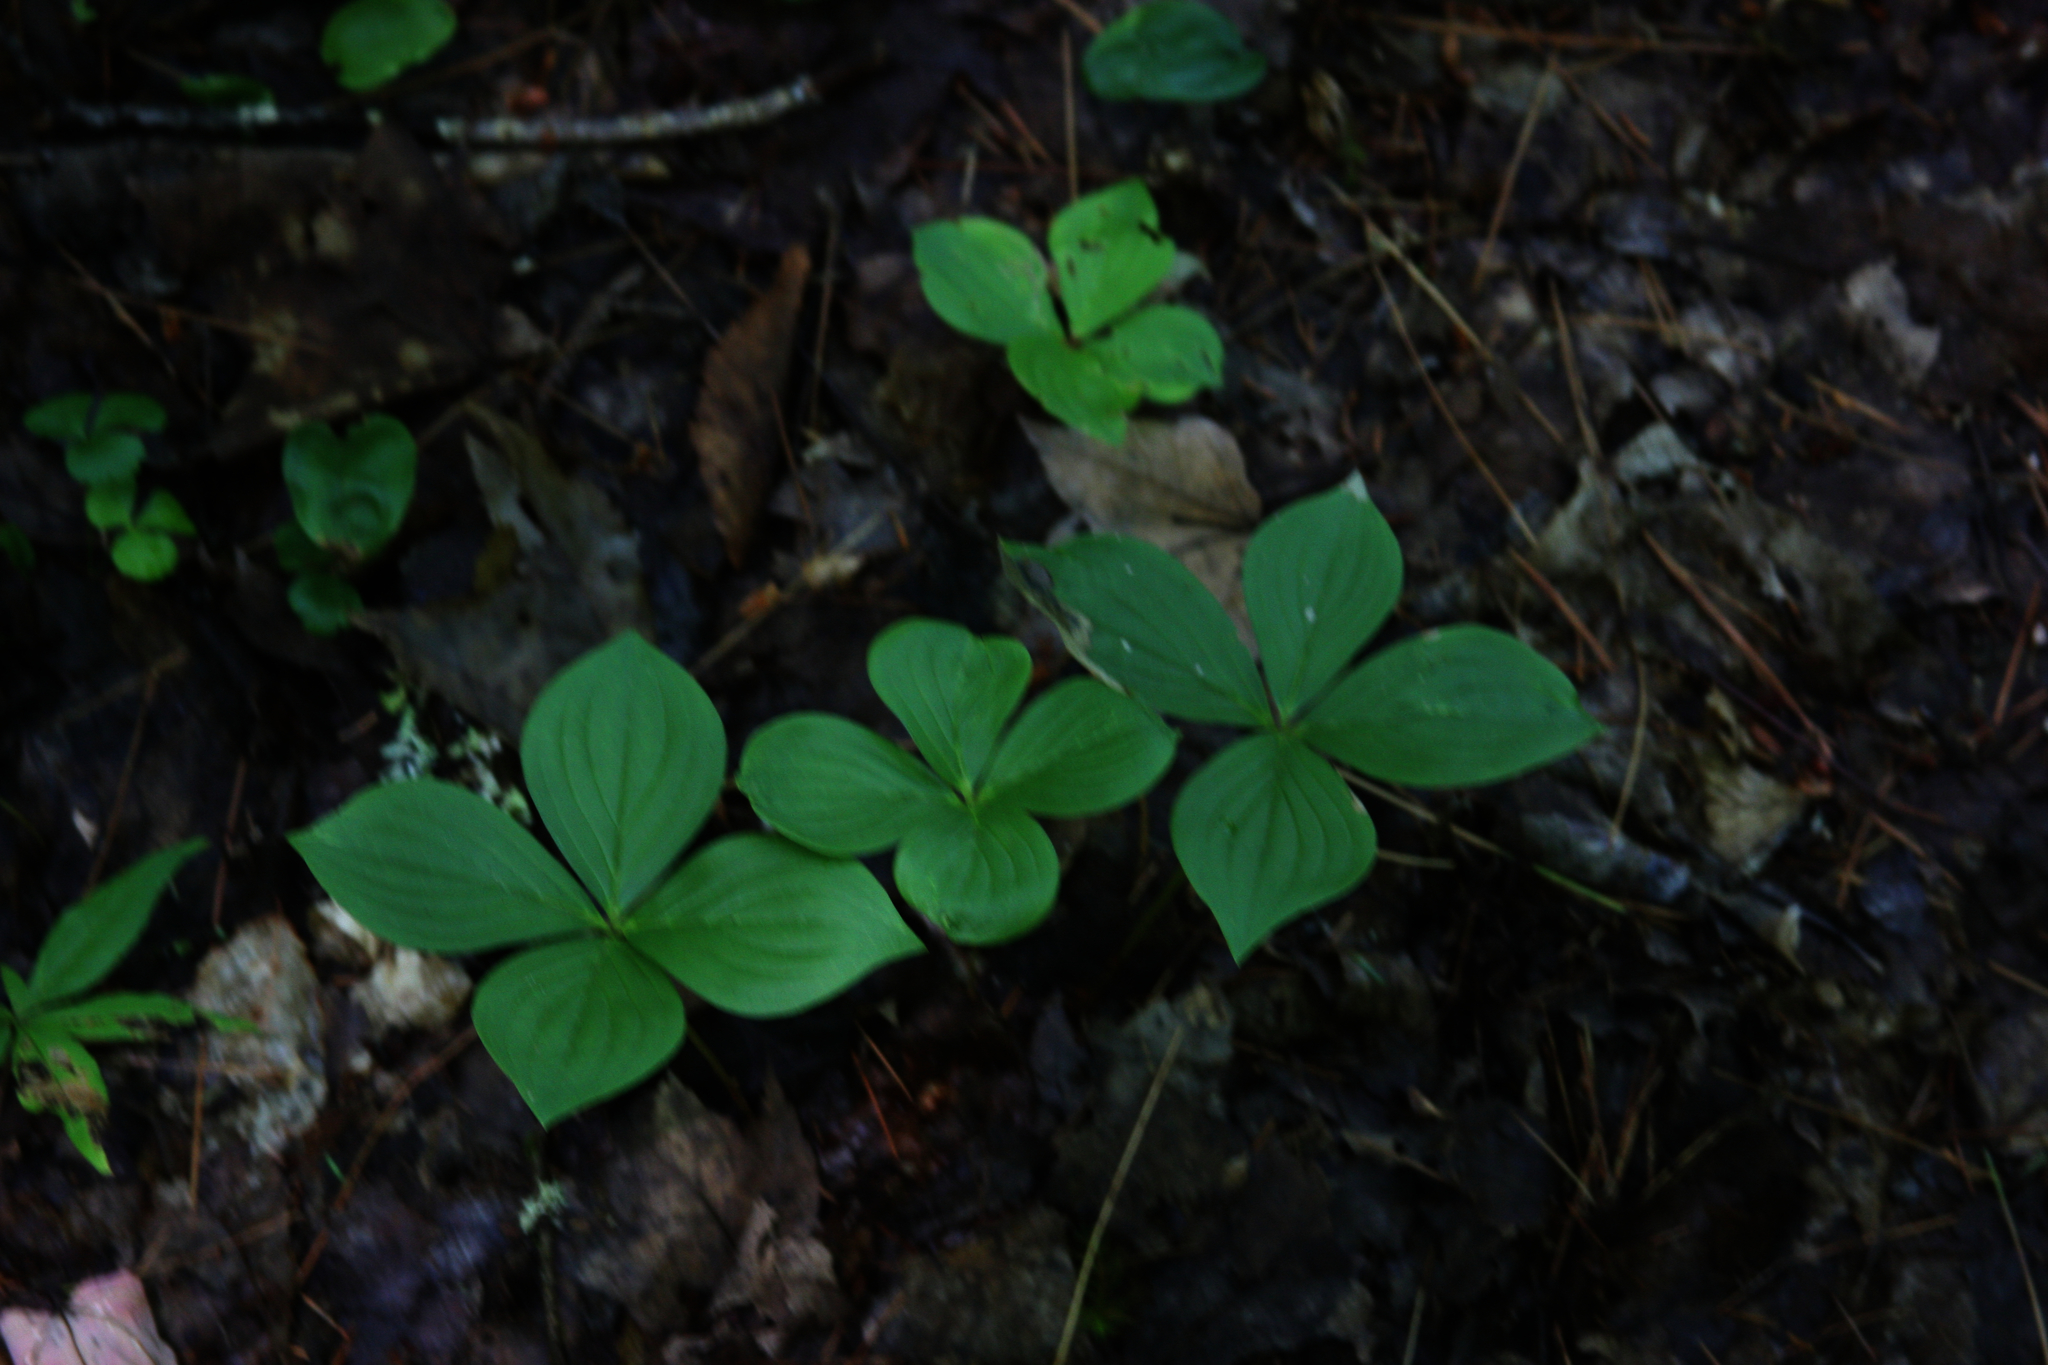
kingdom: Plantae
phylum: Tracheophyta
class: Magnoliopsida
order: Cornales
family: Cornaceae
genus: Cornus
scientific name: Cornus canadensis
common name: Creeping dogwood
